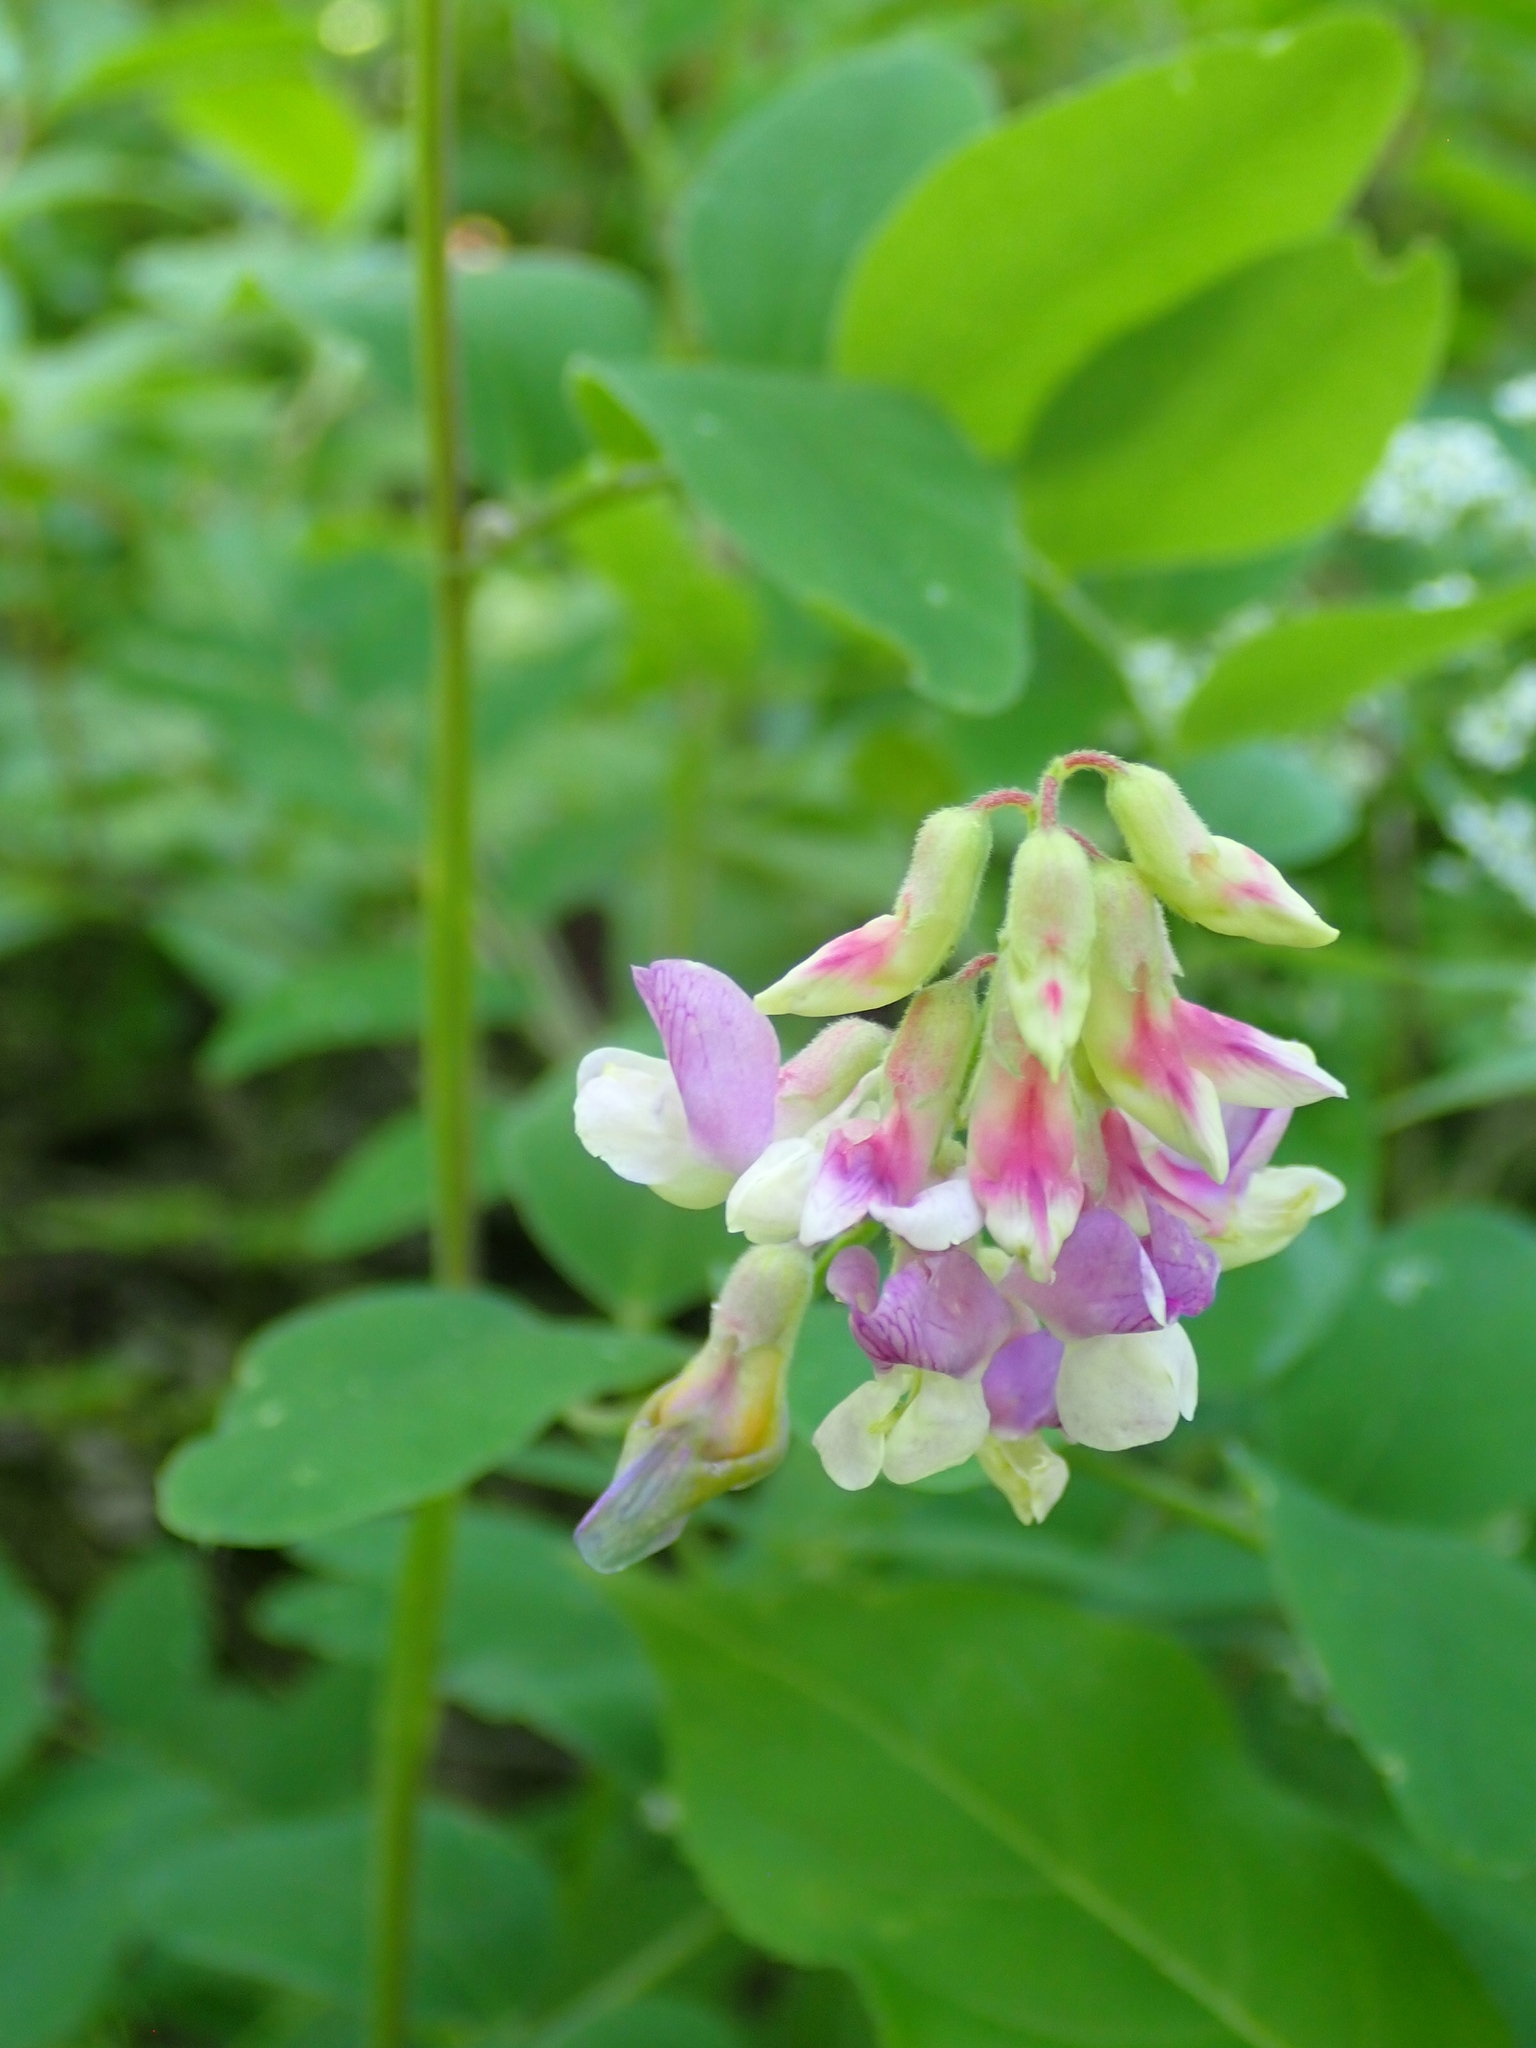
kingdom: Plantae
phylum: Tracheophyta
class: Magnoliopsida
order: Fabales
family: Fabaceae
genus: Lathyrus
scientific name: Lathyrus venosus
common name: Forest-pea
